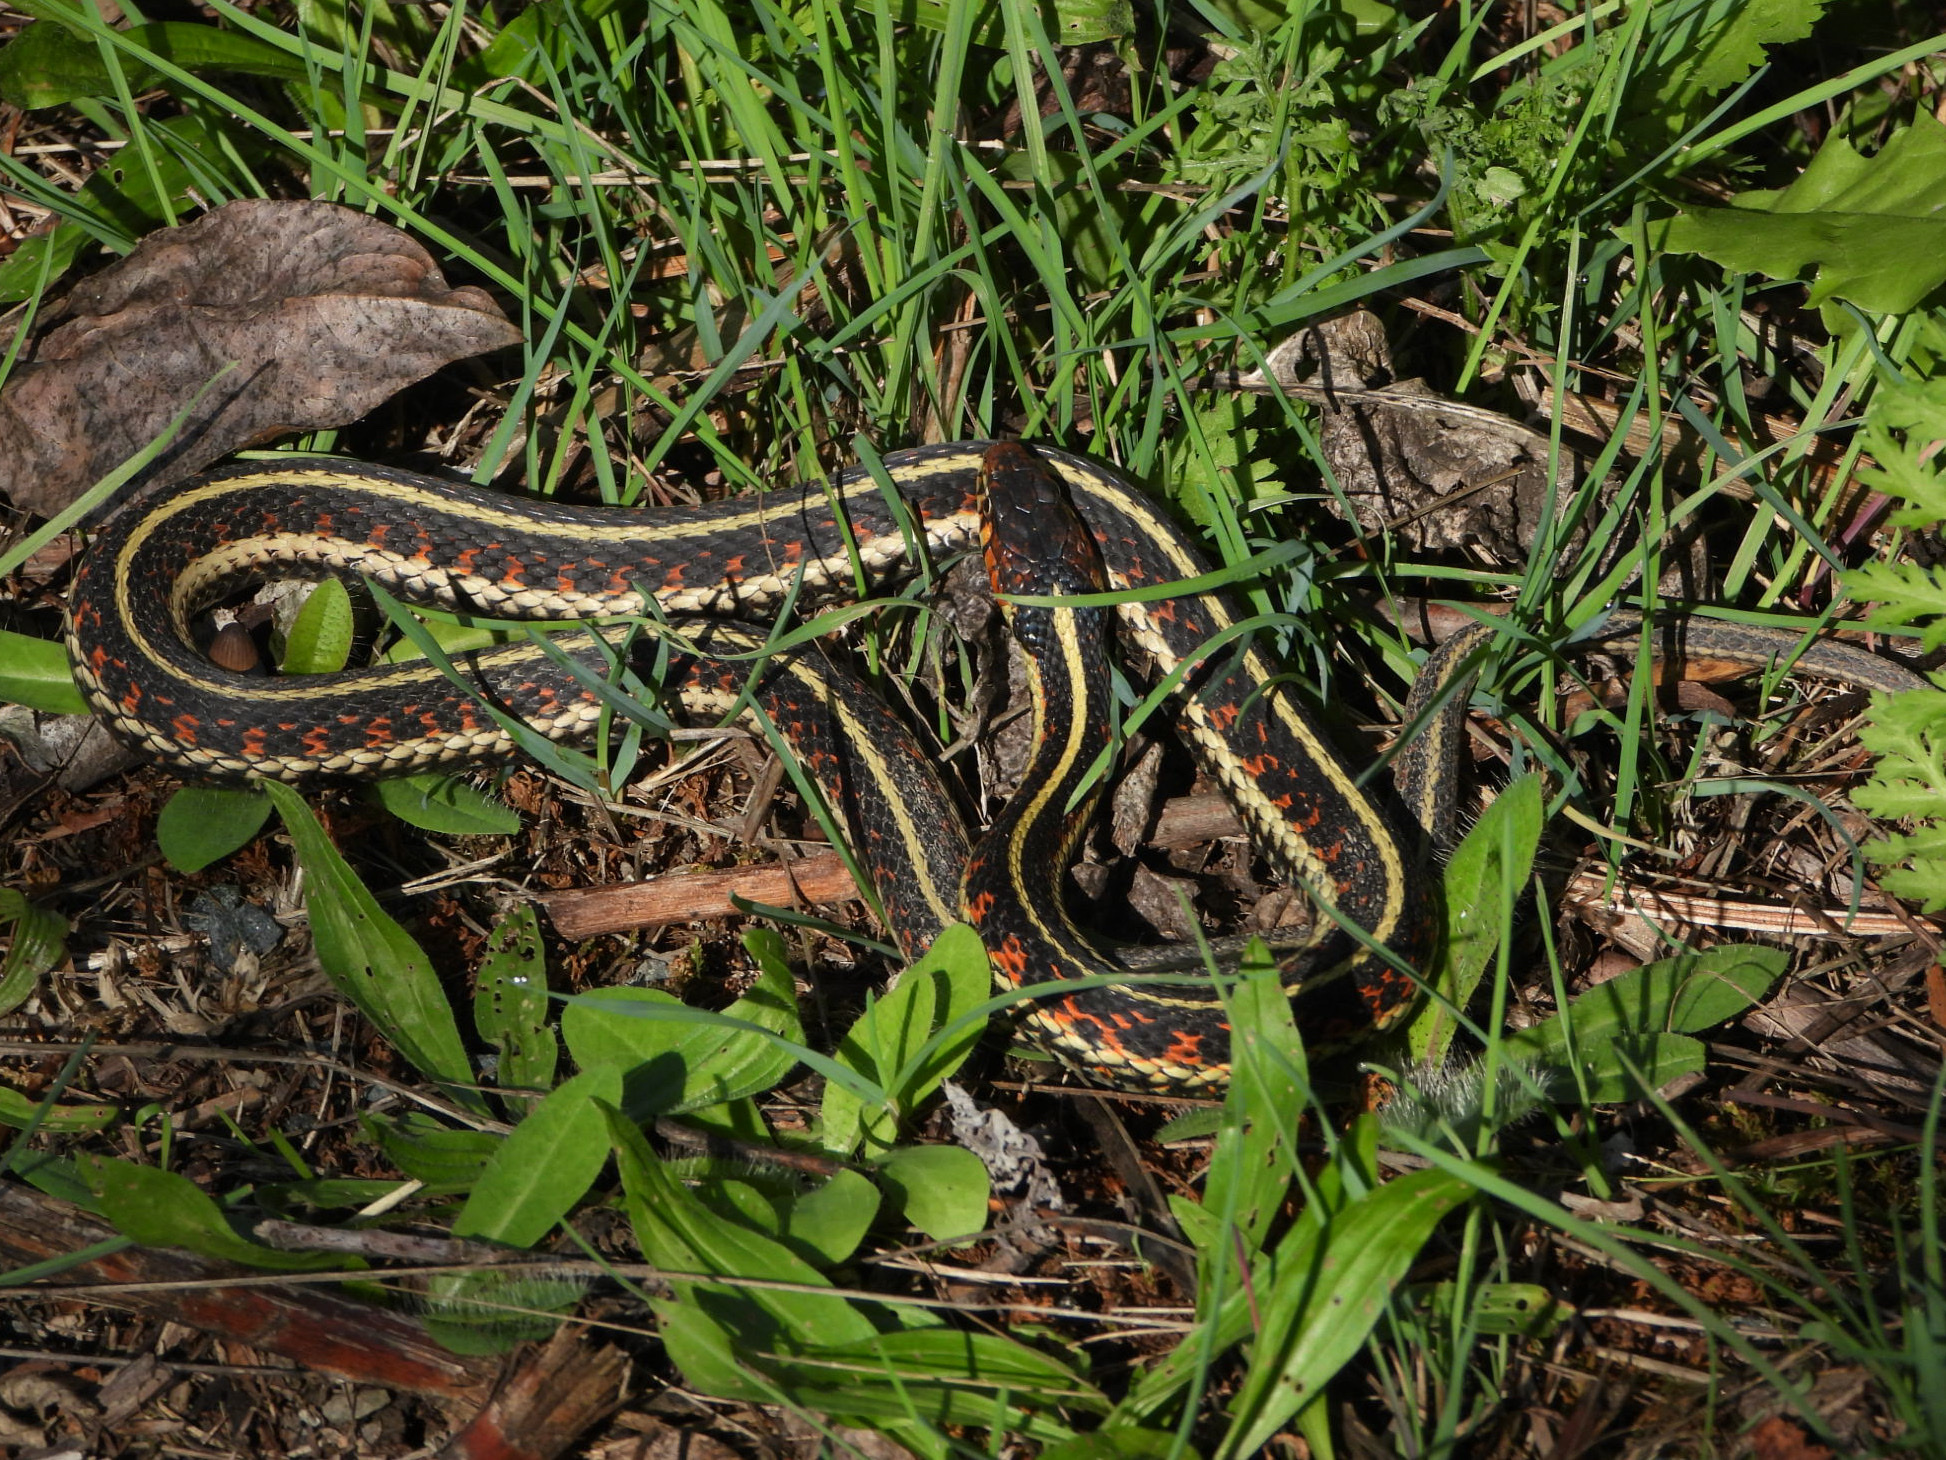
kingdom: Animalia
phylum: Chordata
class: Squamata
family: Colubridae
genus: Thamnophis
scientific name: Thamnophis sirtalis
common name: Common garter snake
